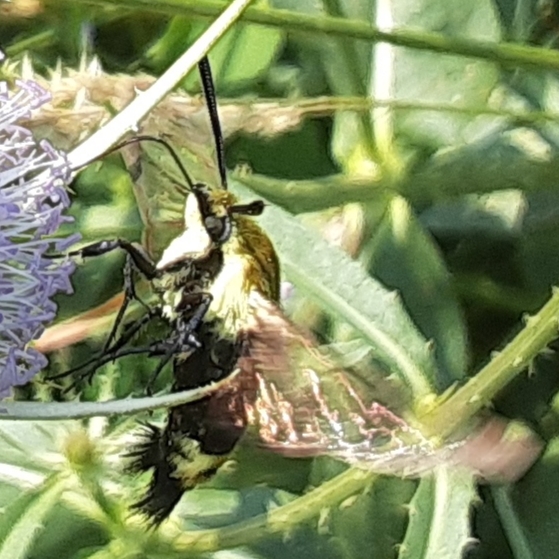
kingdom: Animalia
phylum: Arthropoda
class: Insecta
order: Lepidoptera
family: Sphingidae
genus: Hemaris
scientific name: Hemaris diffinis
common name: Bumblebee moth
